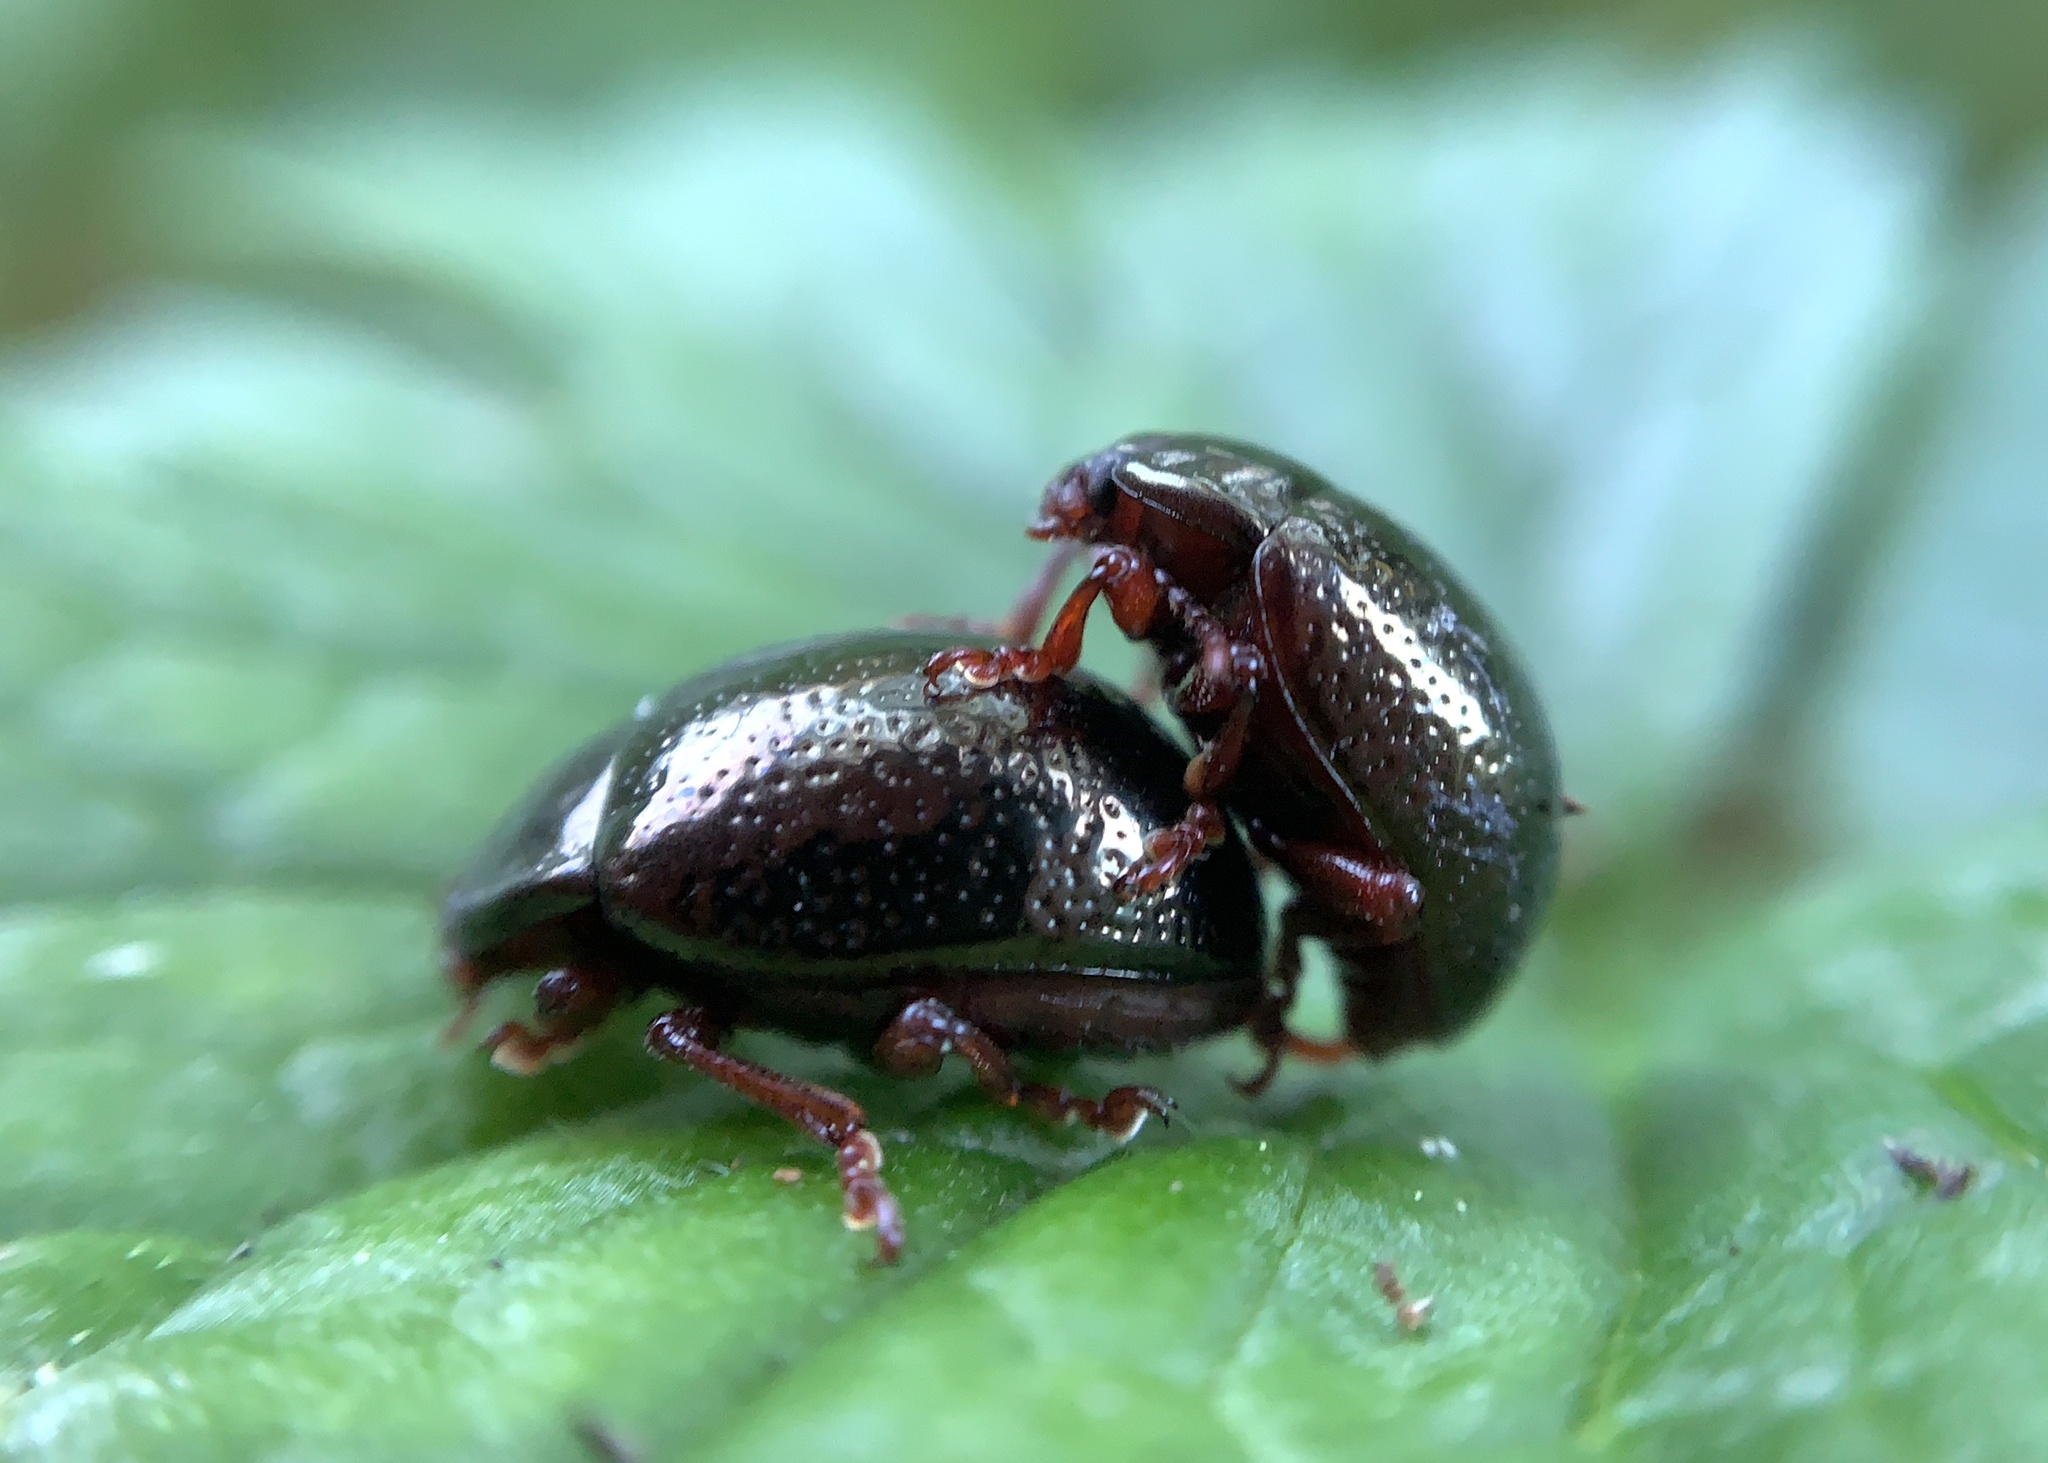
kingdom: Animalia
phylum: Arthropoda
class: Insecta
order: Coleoptera
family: Chrysomelidae
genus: Chrysolina
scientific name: Chrysolina bankii
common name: Leaf beetle
